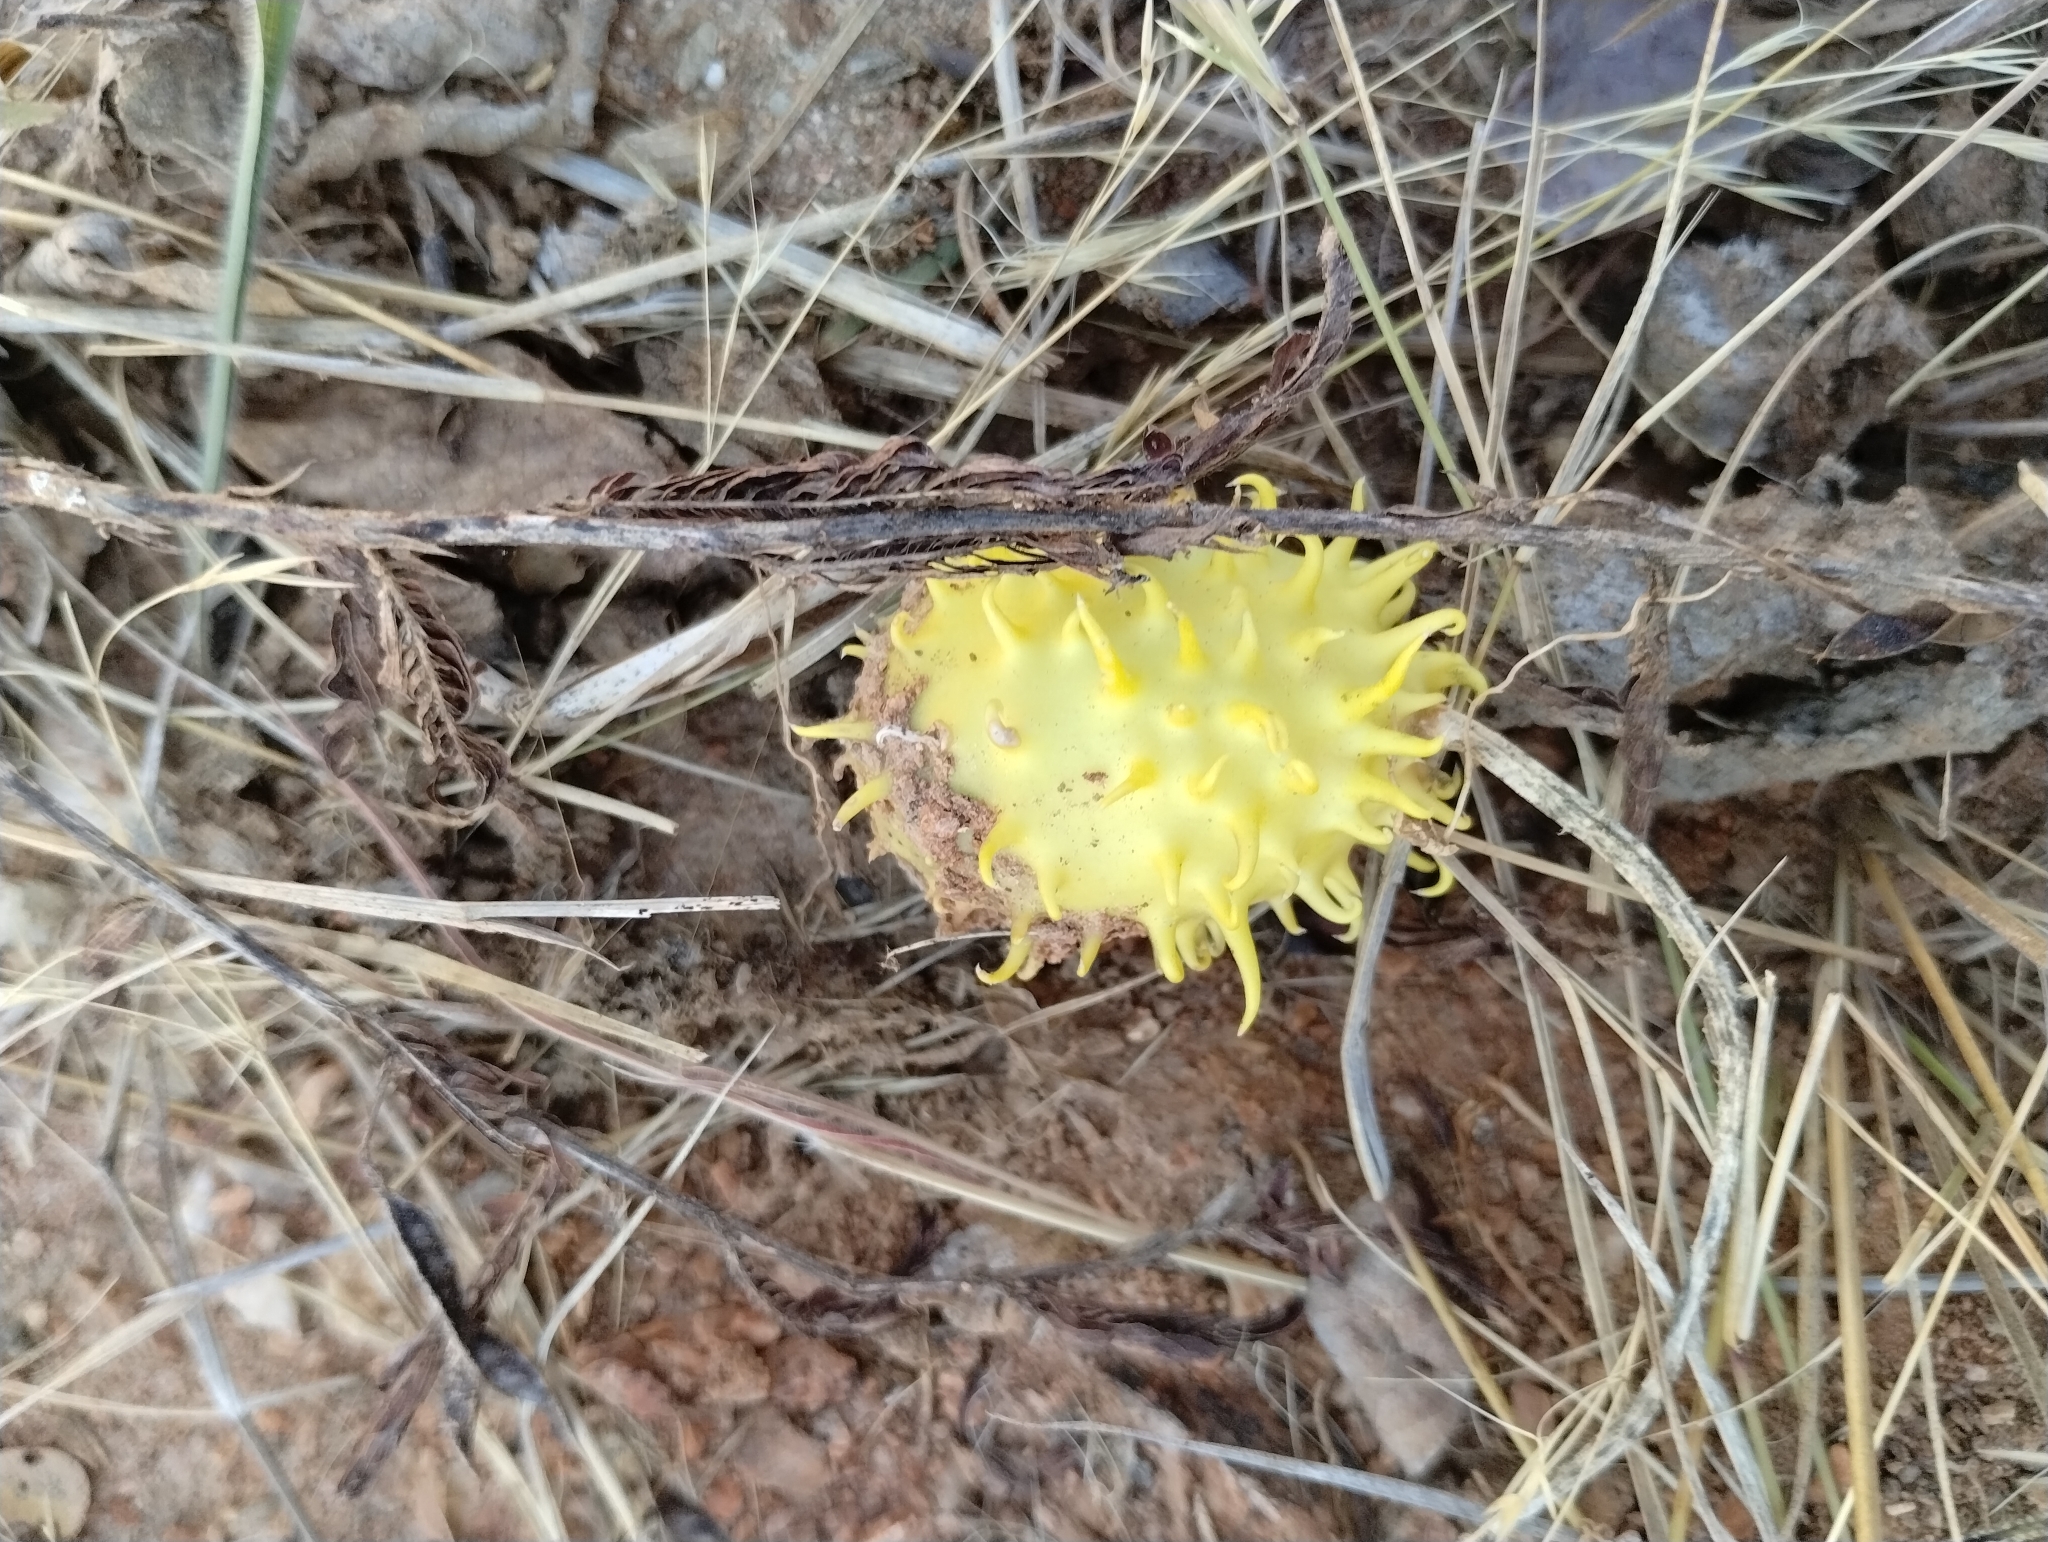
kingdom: Plantae
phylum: Tracheophyta
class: Magnoliopsida
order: Cucurbitales
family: Cucurbitaceae
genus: Cucumis
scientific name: Cucumis anguria
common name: West indian gherkin
